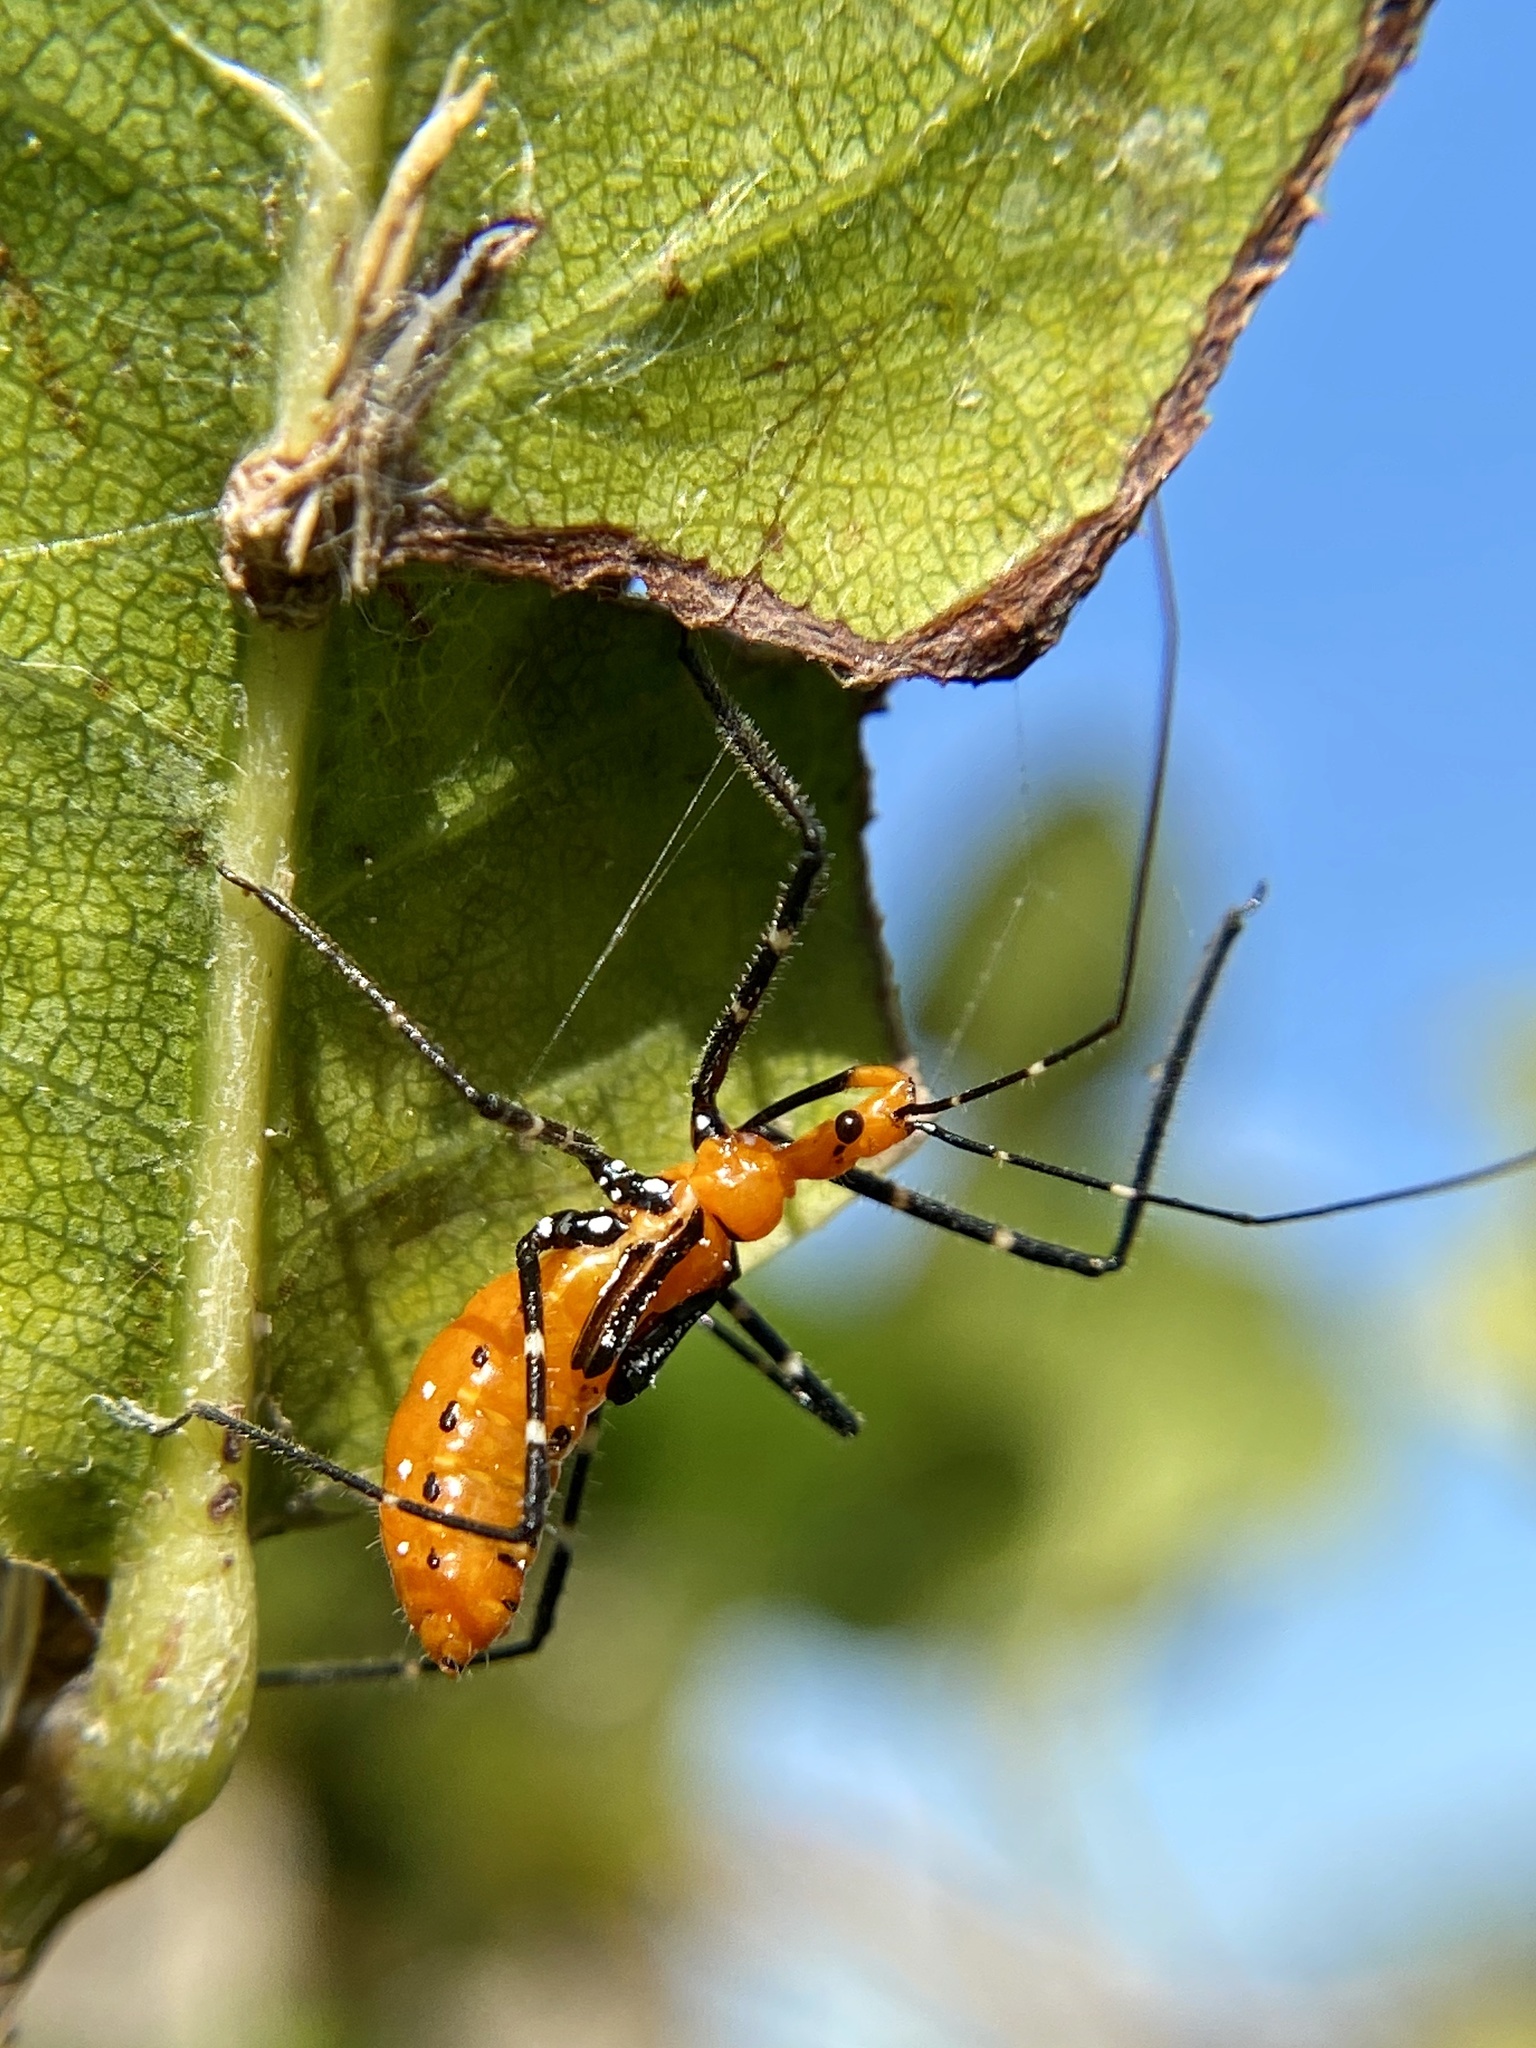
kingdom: Animalia
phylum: Arthropoda
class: Insecta
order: Hemiptera
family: Reduviidae
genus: Zelus
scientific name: Zelus longipes
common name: Milkweed assassin bug
